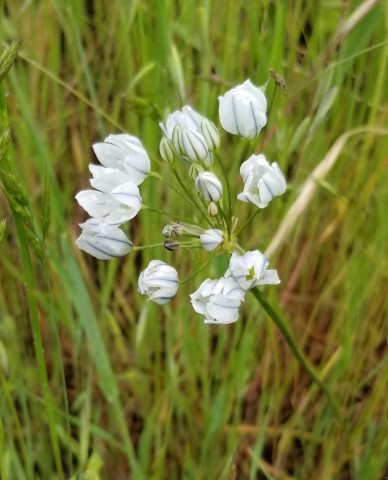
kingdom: Plantae
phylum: Tracheophyta
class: Liliopsida
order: Asparagales
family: Asparagaceae
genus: Triteleia
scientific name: Triteleia hyacinthina
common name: White brodiaea
